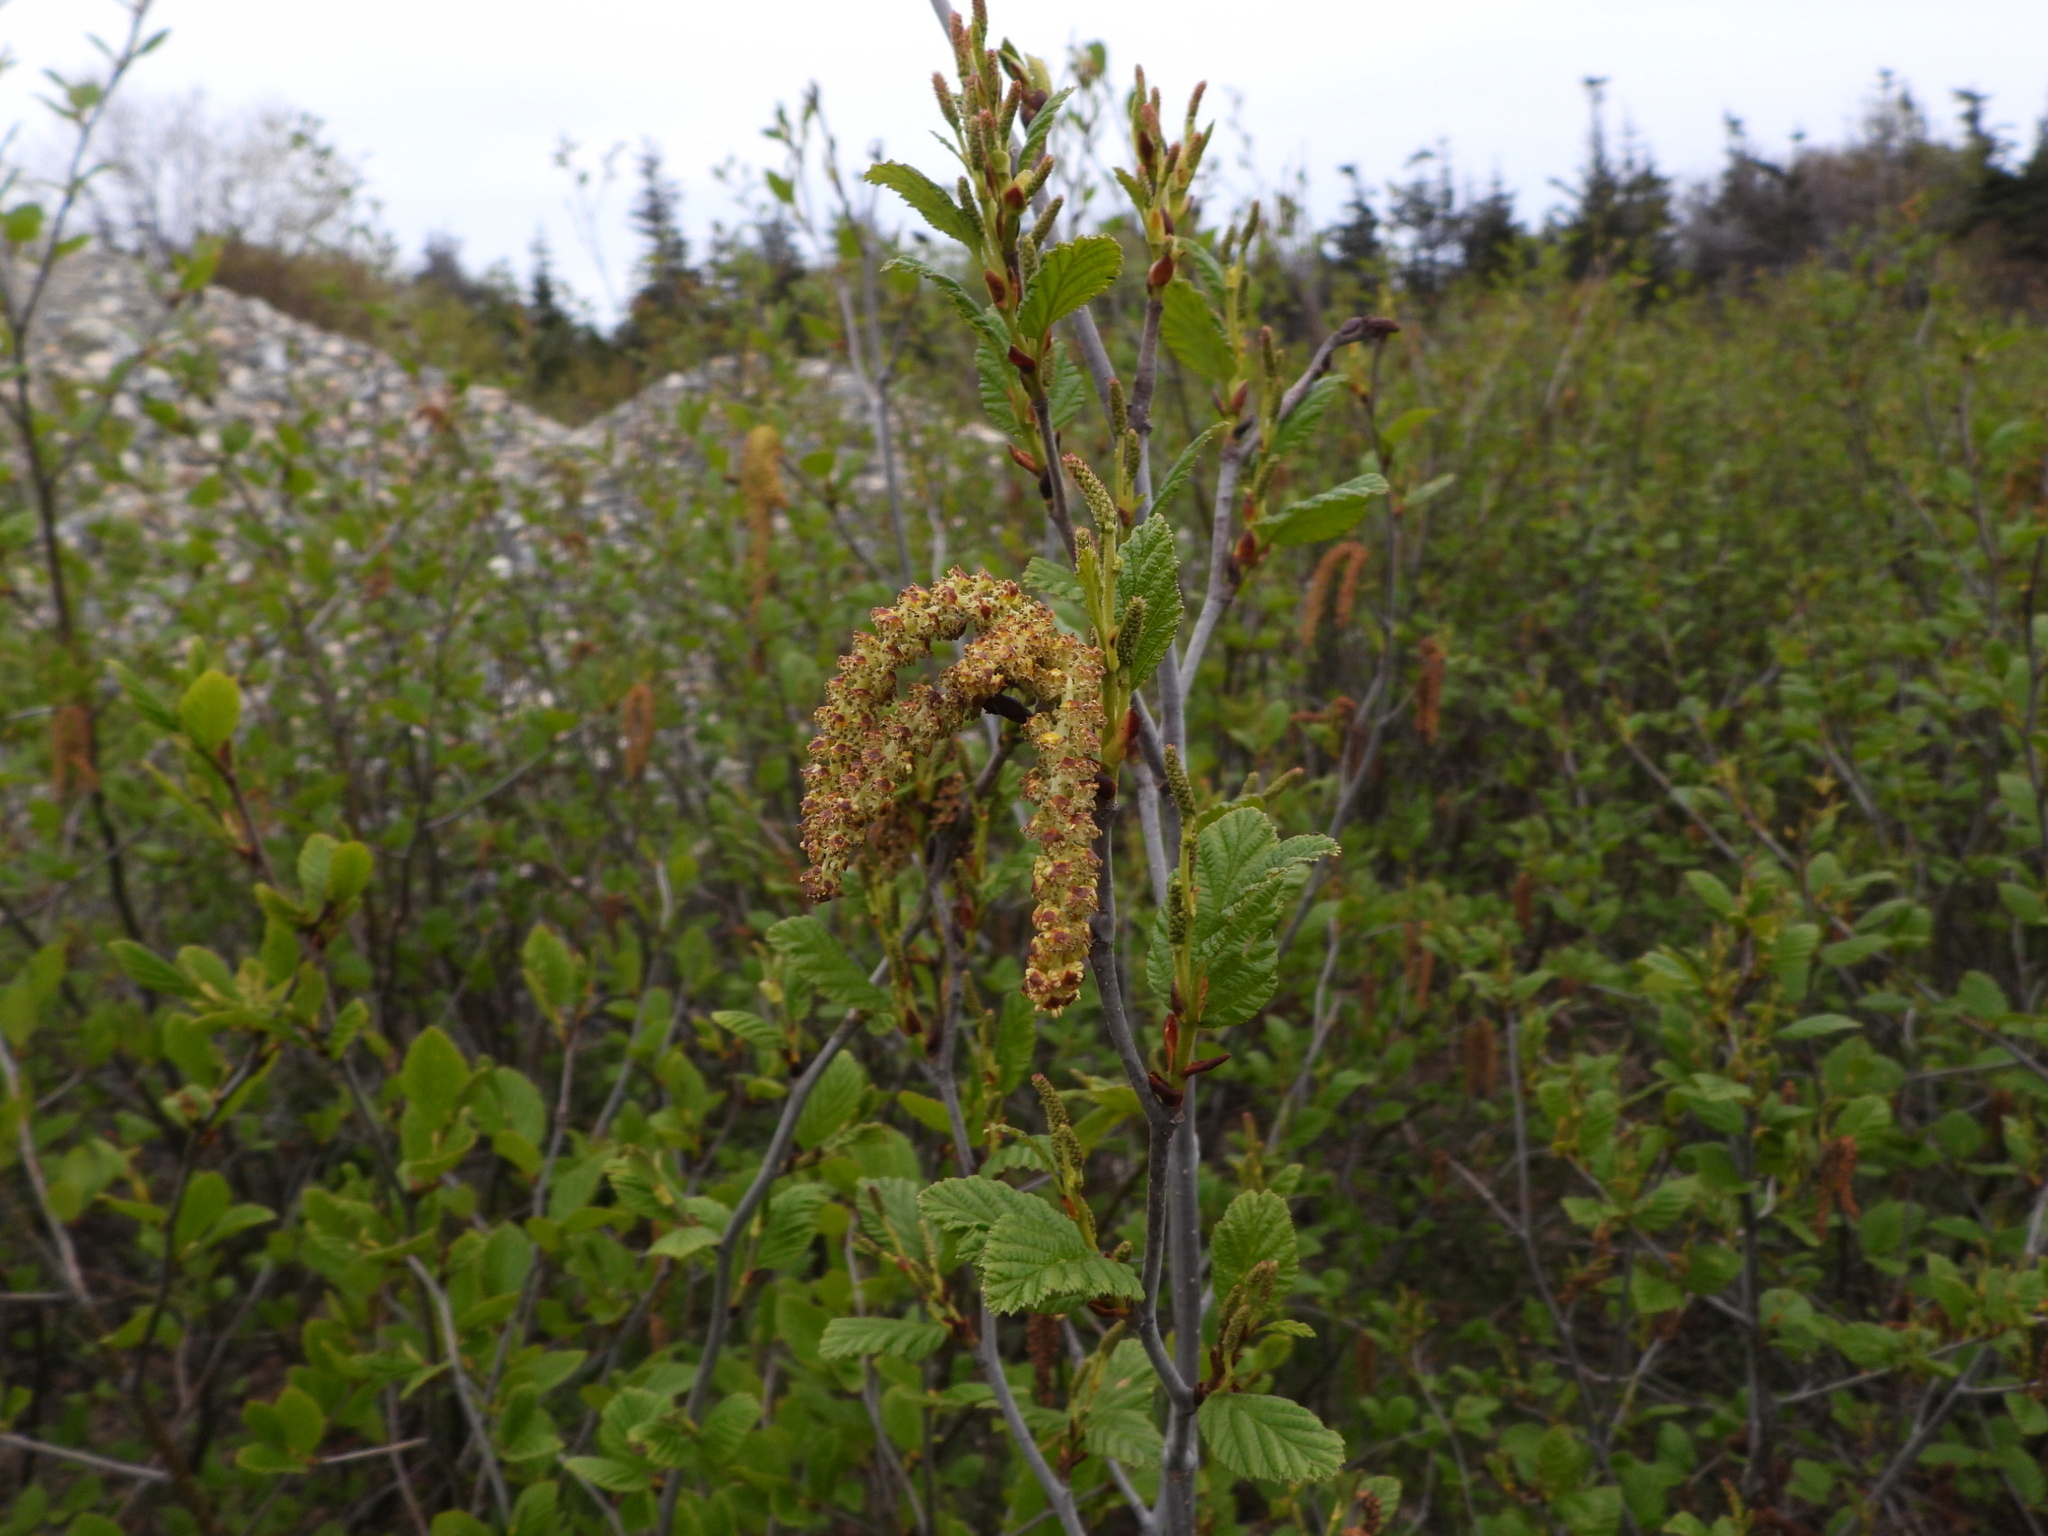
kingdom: Plantae
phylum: Tracheophyta
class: Magnoliopsida
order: Fagales
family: Betulaceae
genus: Alnus
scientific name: Alnus alnobetula
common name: Green alder
